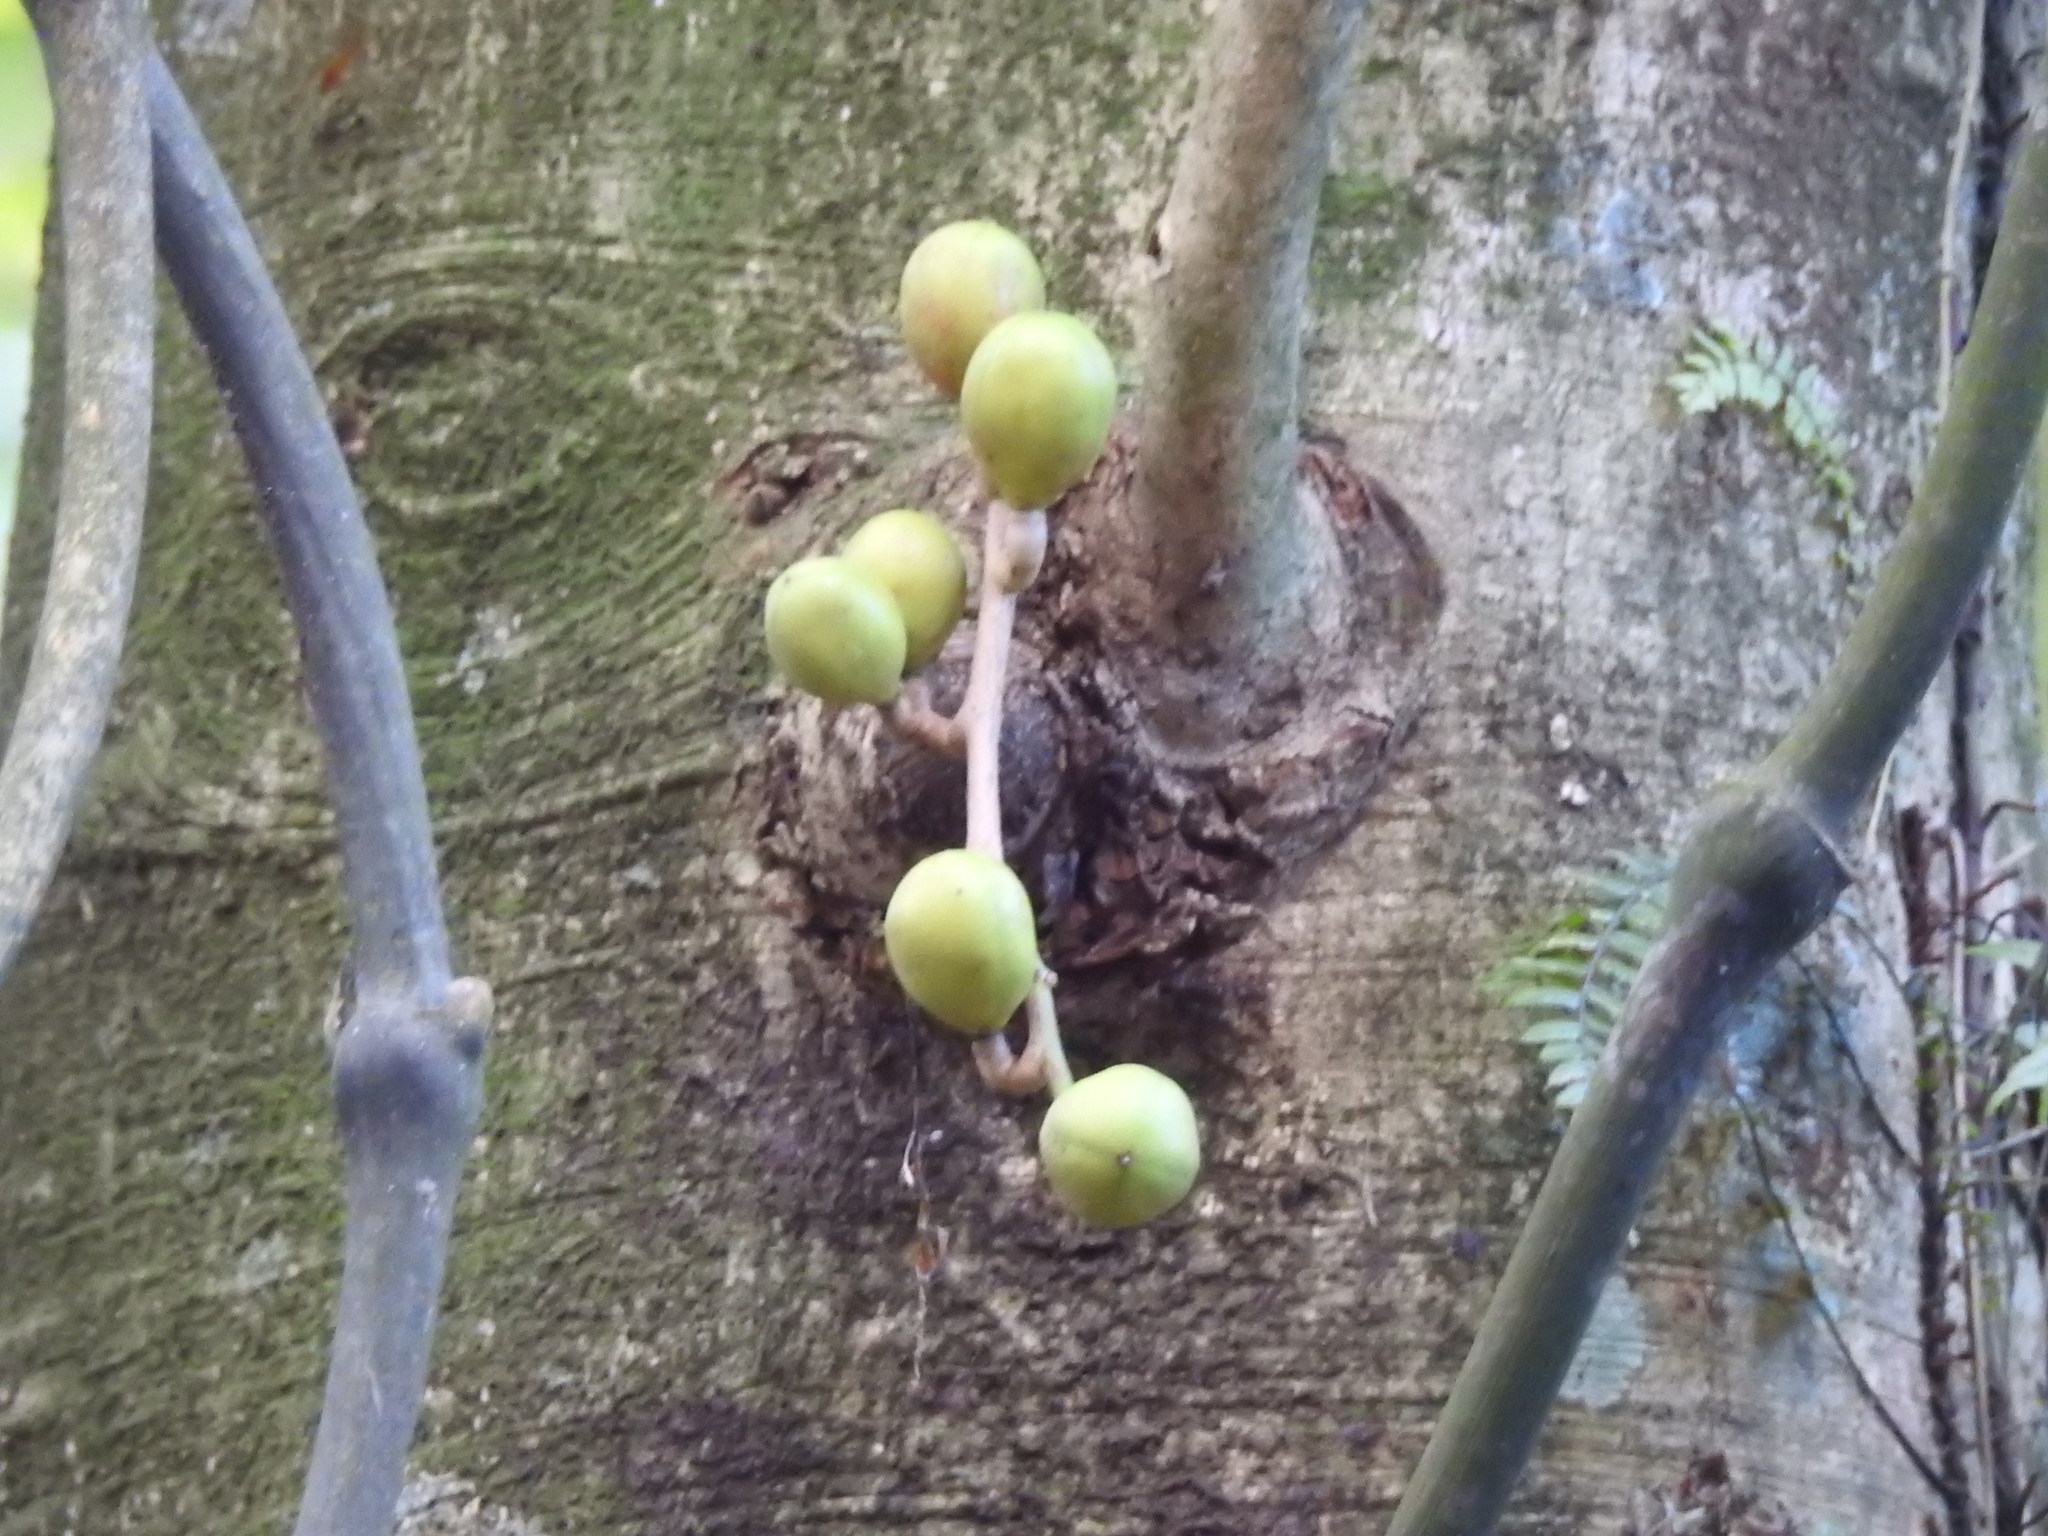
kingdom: Plantae
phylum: Tracheophyta
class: Magnoliopsida
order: Sapindales
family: Meliaceae
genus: Didymocheton
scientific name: Didymocheton spectabilis
